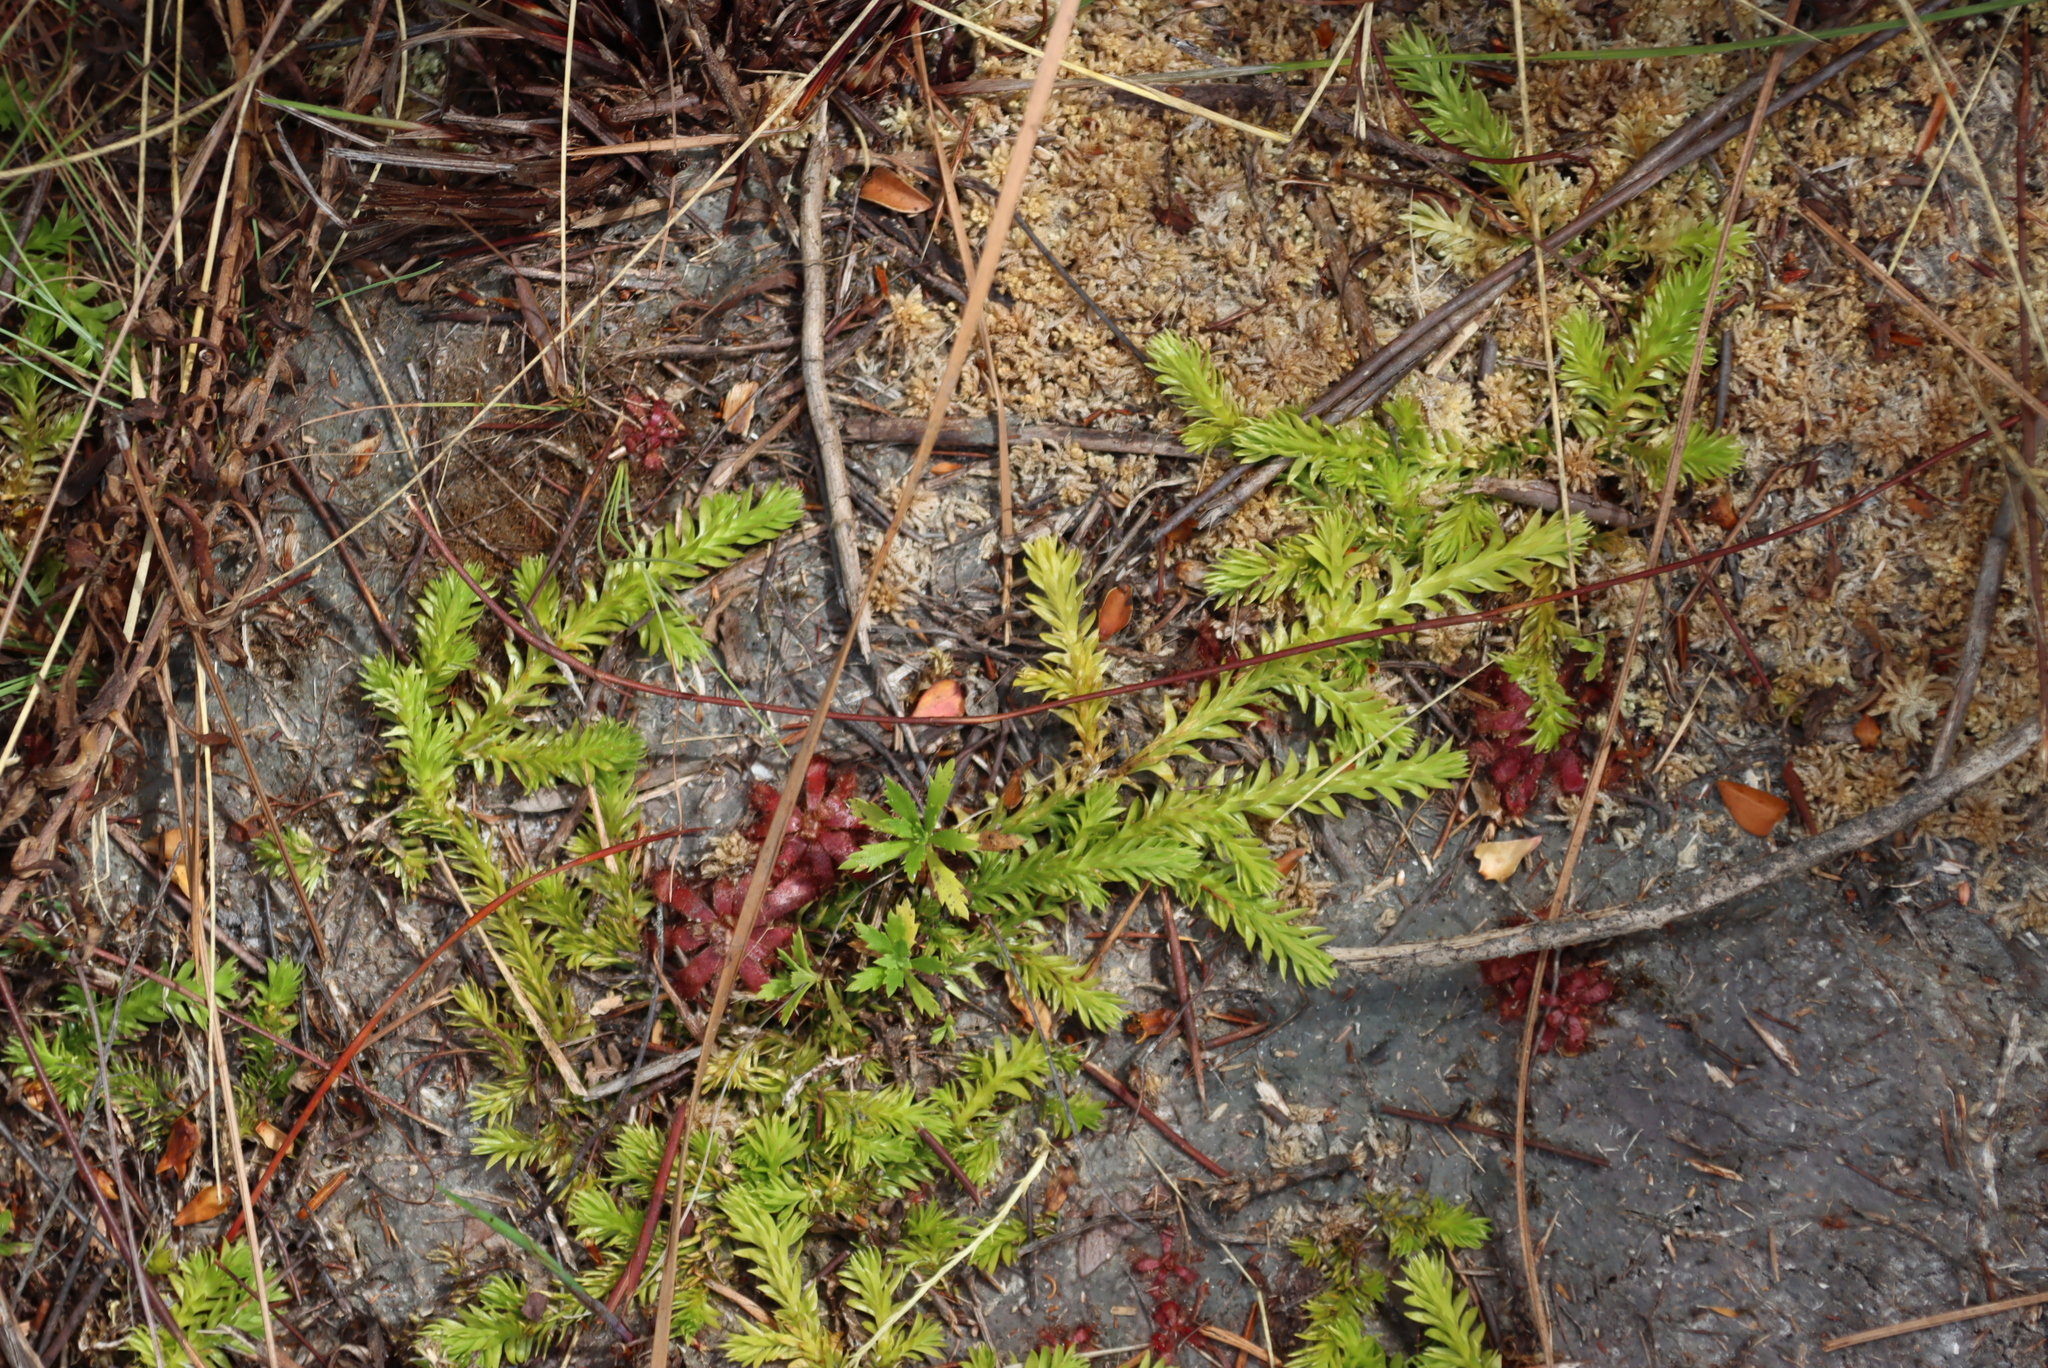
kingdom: Plantae
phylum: Tracheophyta
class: Lycopodiopsida
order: Lycopodiales
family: Lycopodiaceae
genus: Pseudolycopodiella
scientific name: Pseudolycopodiella caroliniana
